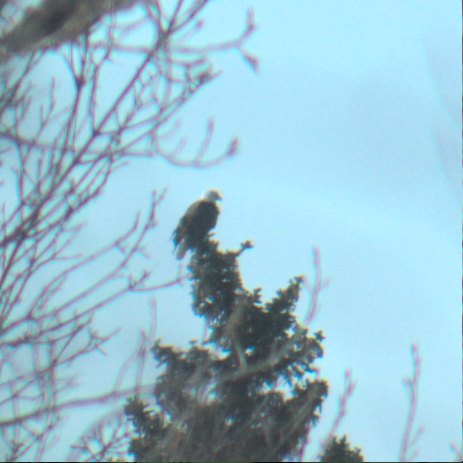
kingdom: Animalia
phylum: Chordata
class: Aves
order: Accipitriformes
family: Accipitridae
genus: Haliaeetus
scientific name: Haliaeetus leucocephalus
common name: Bald eagle
